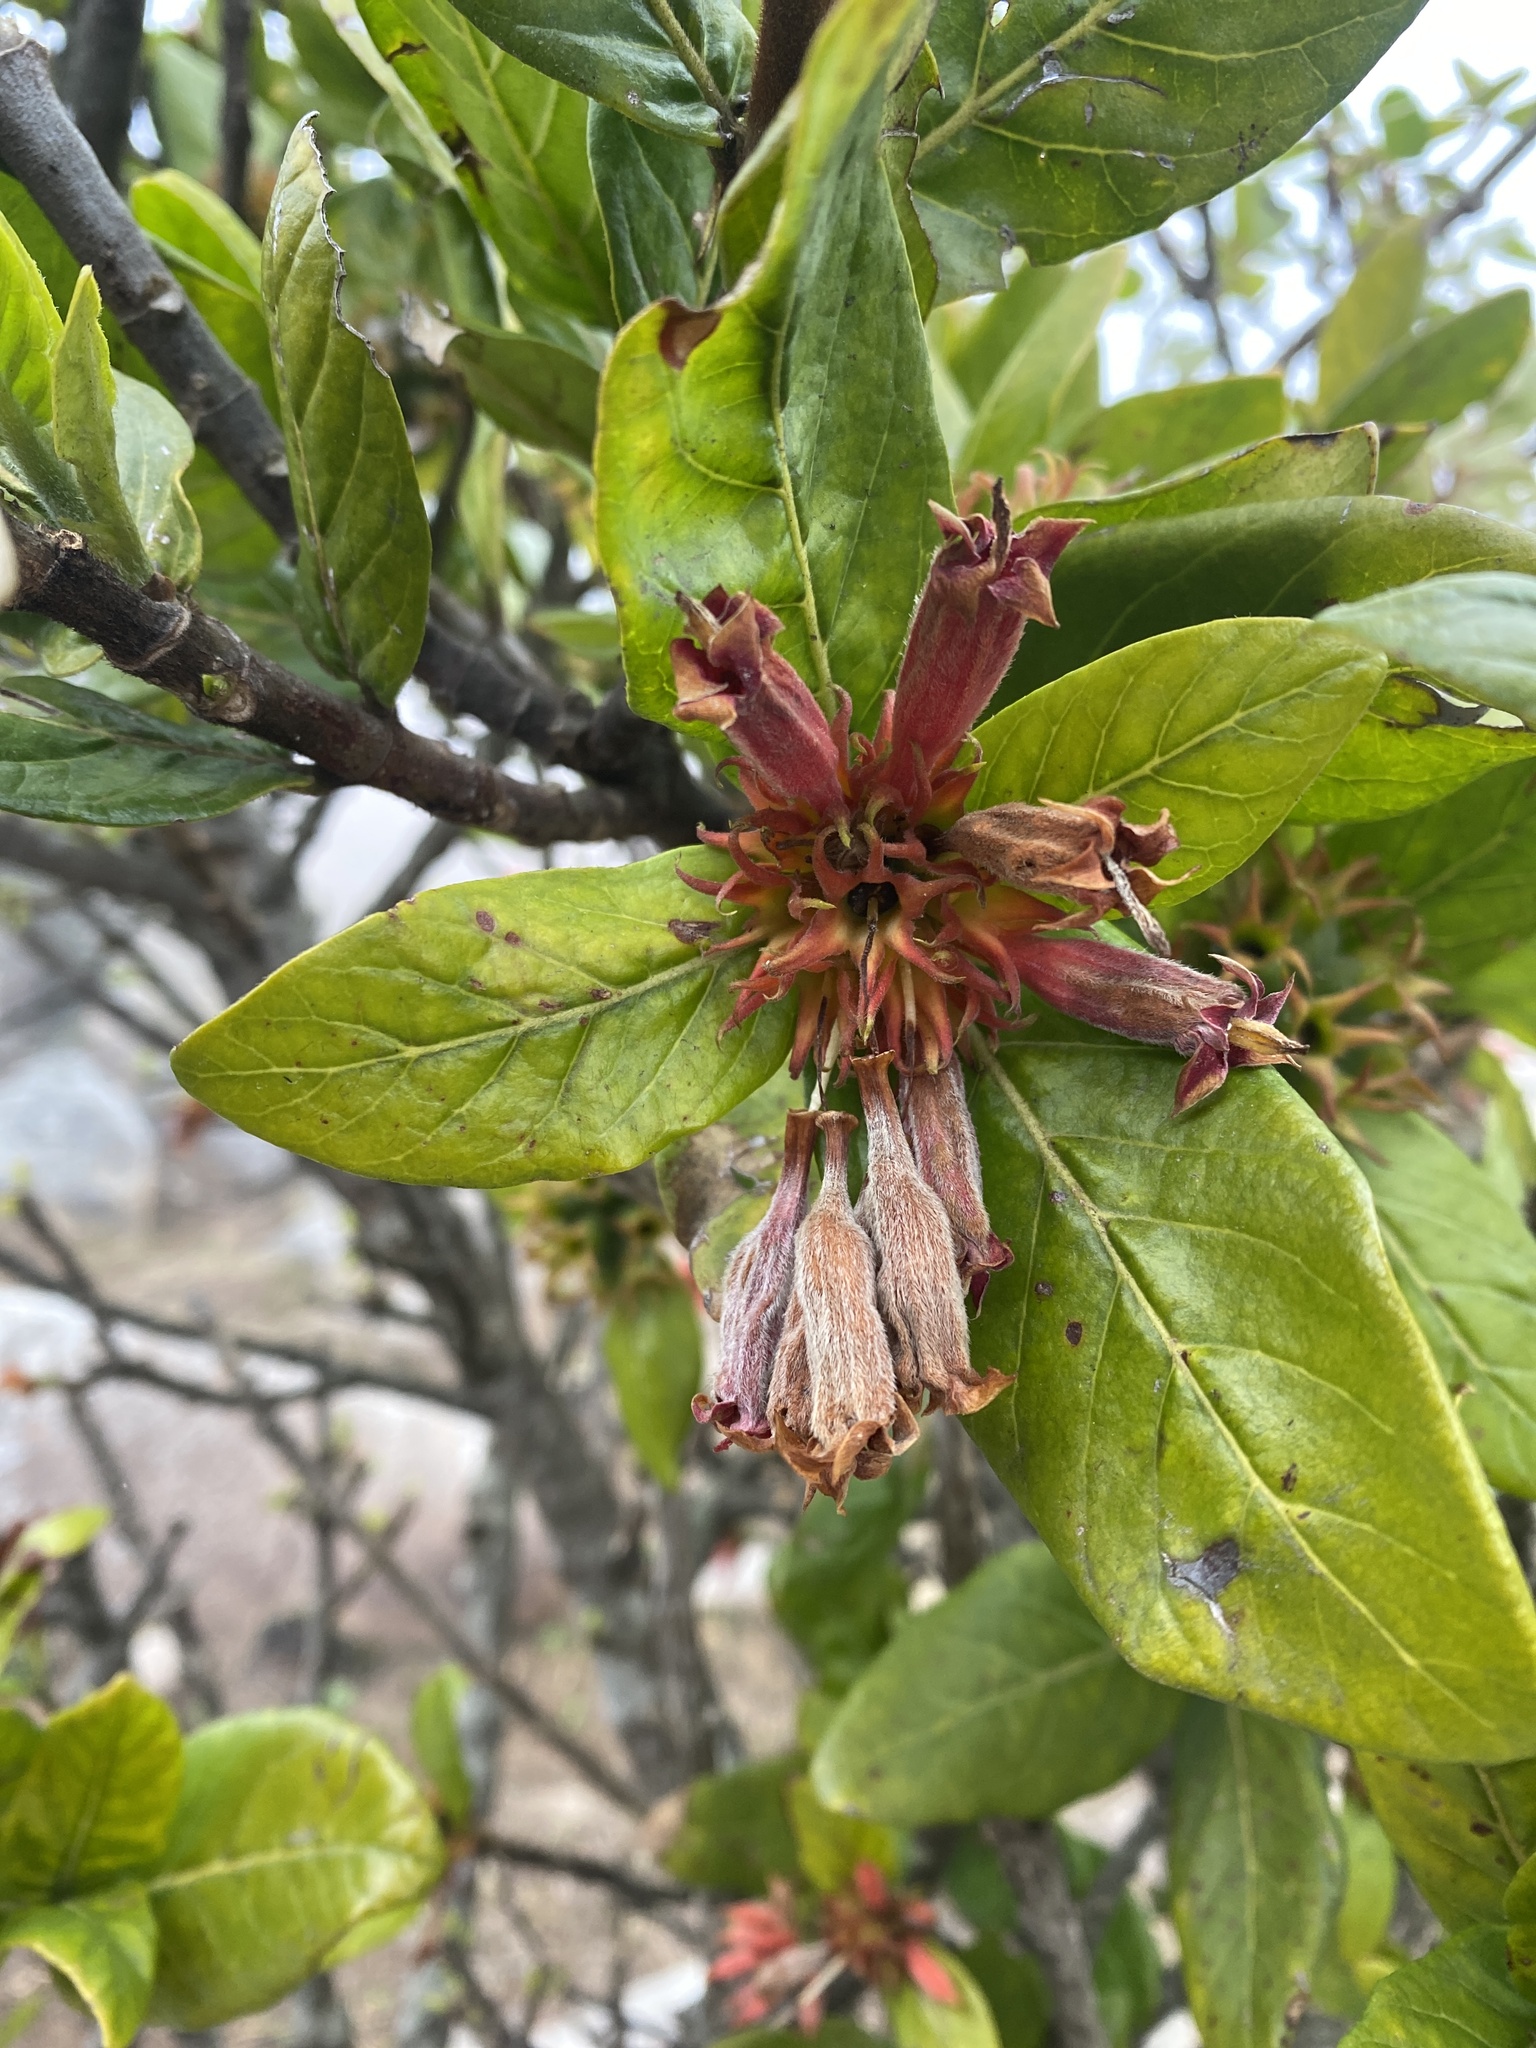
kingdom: Plantae
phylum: Tracheophyta
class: Magnoliopsida
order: Gentianales
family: Rubiaceae
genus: Burchellia
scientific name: Burchellia bubalina
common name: Wild pomegranate
